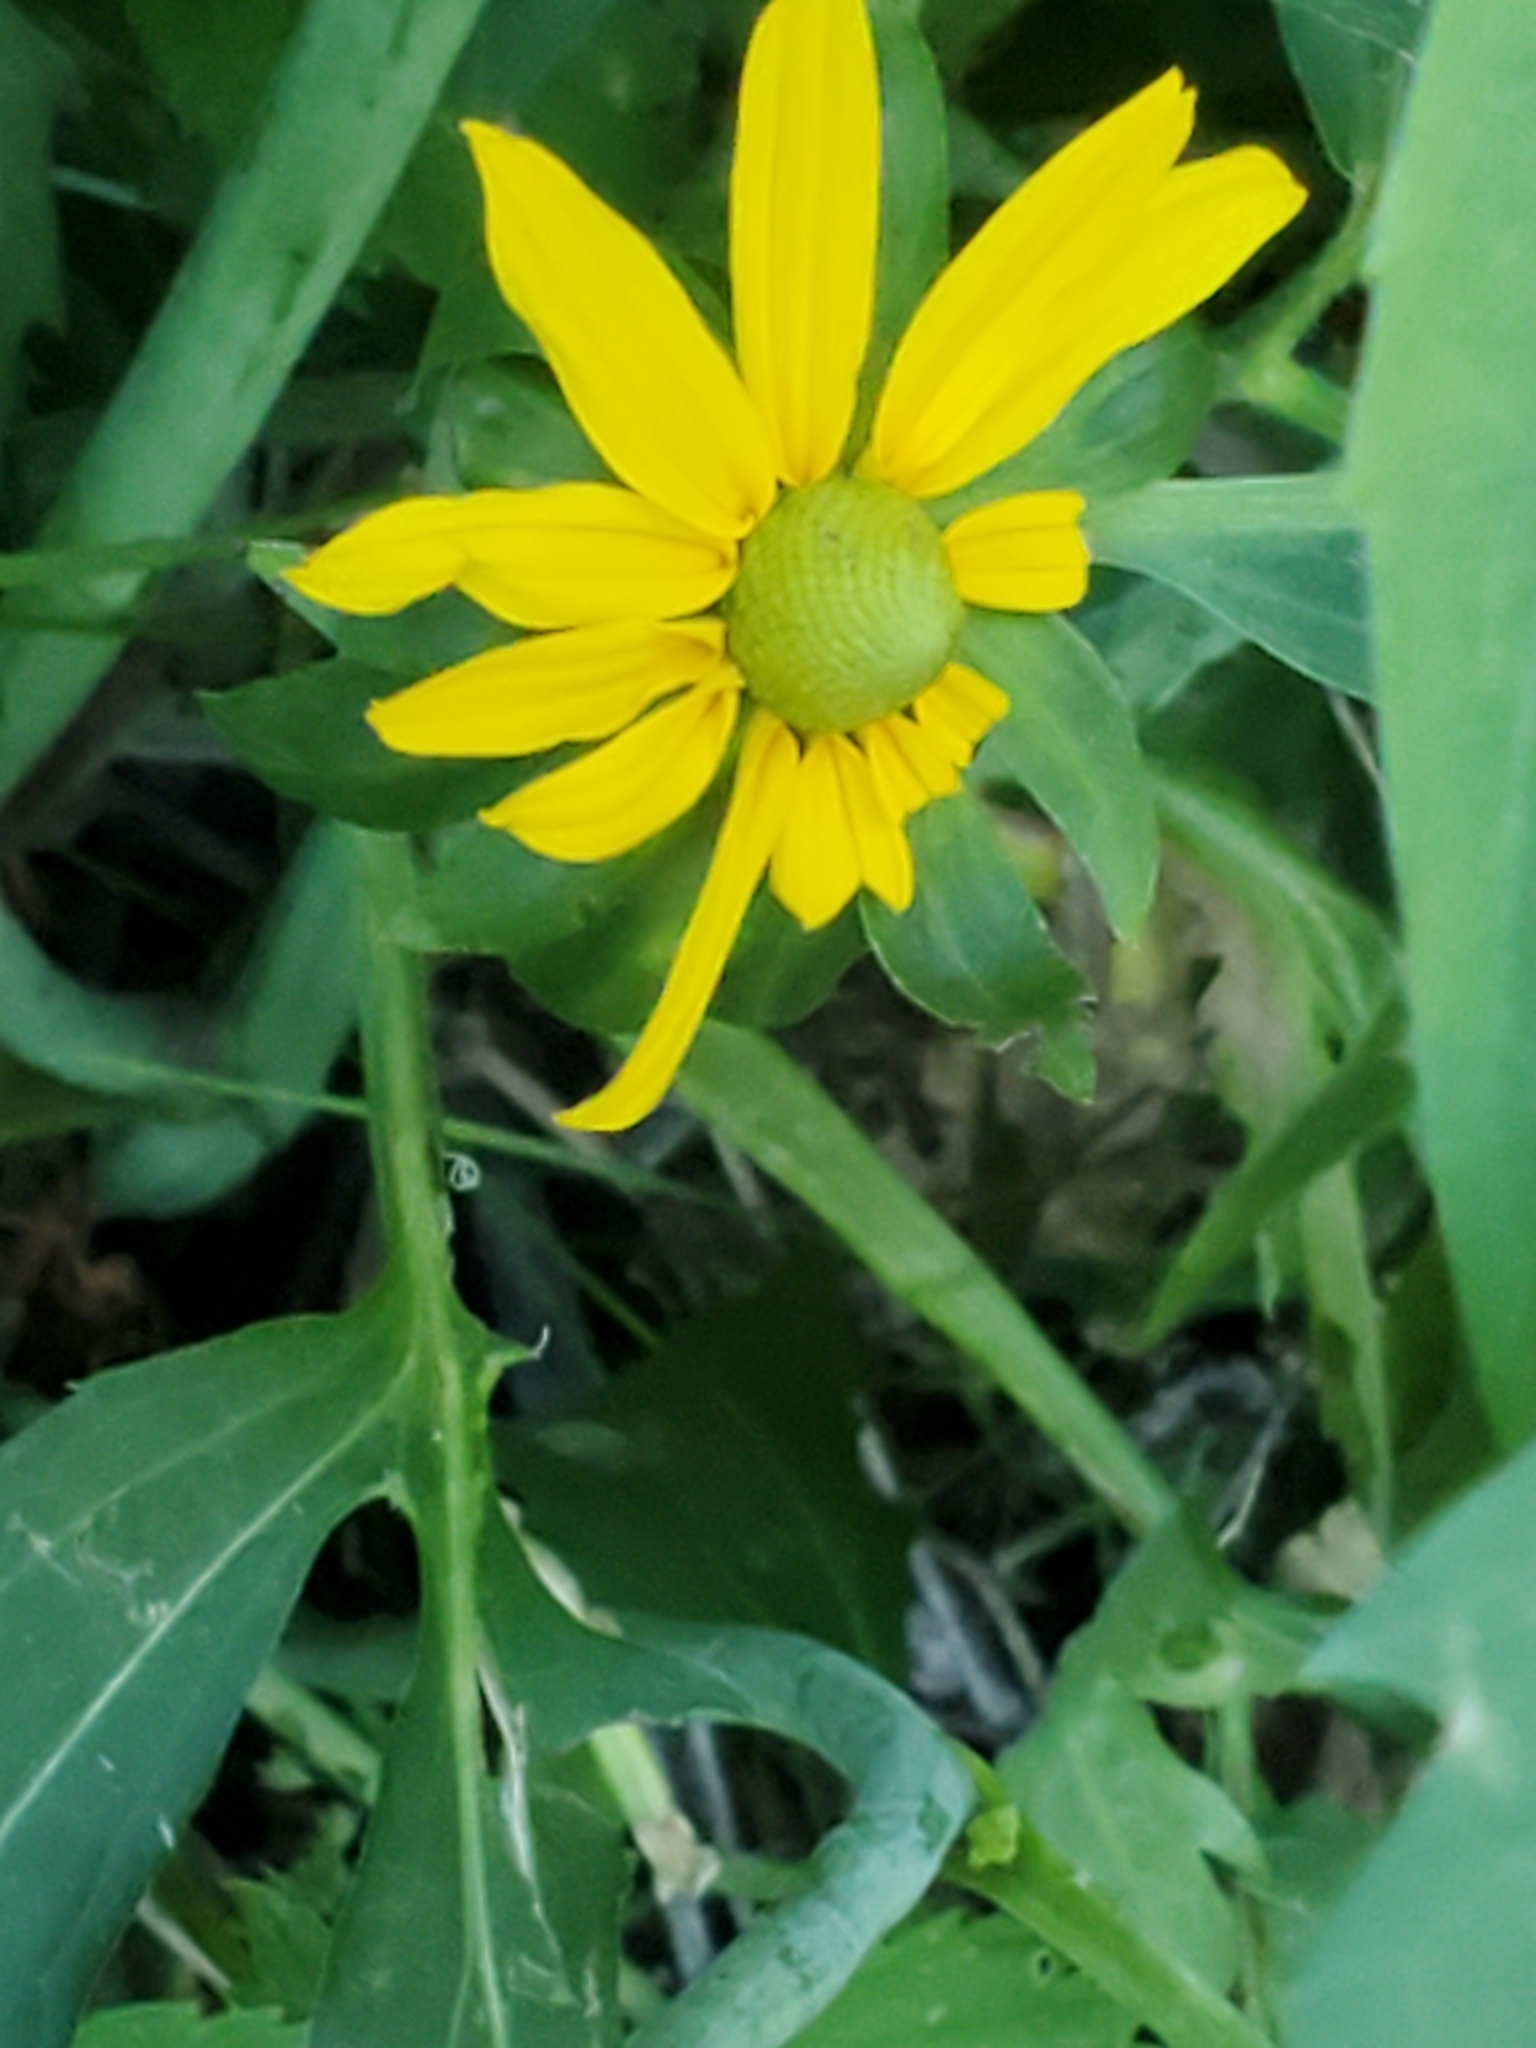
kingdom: Plantae
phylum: Tracheophyta
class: Magnoliopsida
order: Asterales
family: Asteraceae
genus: Rudbeckia
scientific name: Rudbeckia laciniata
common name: Coneflower
